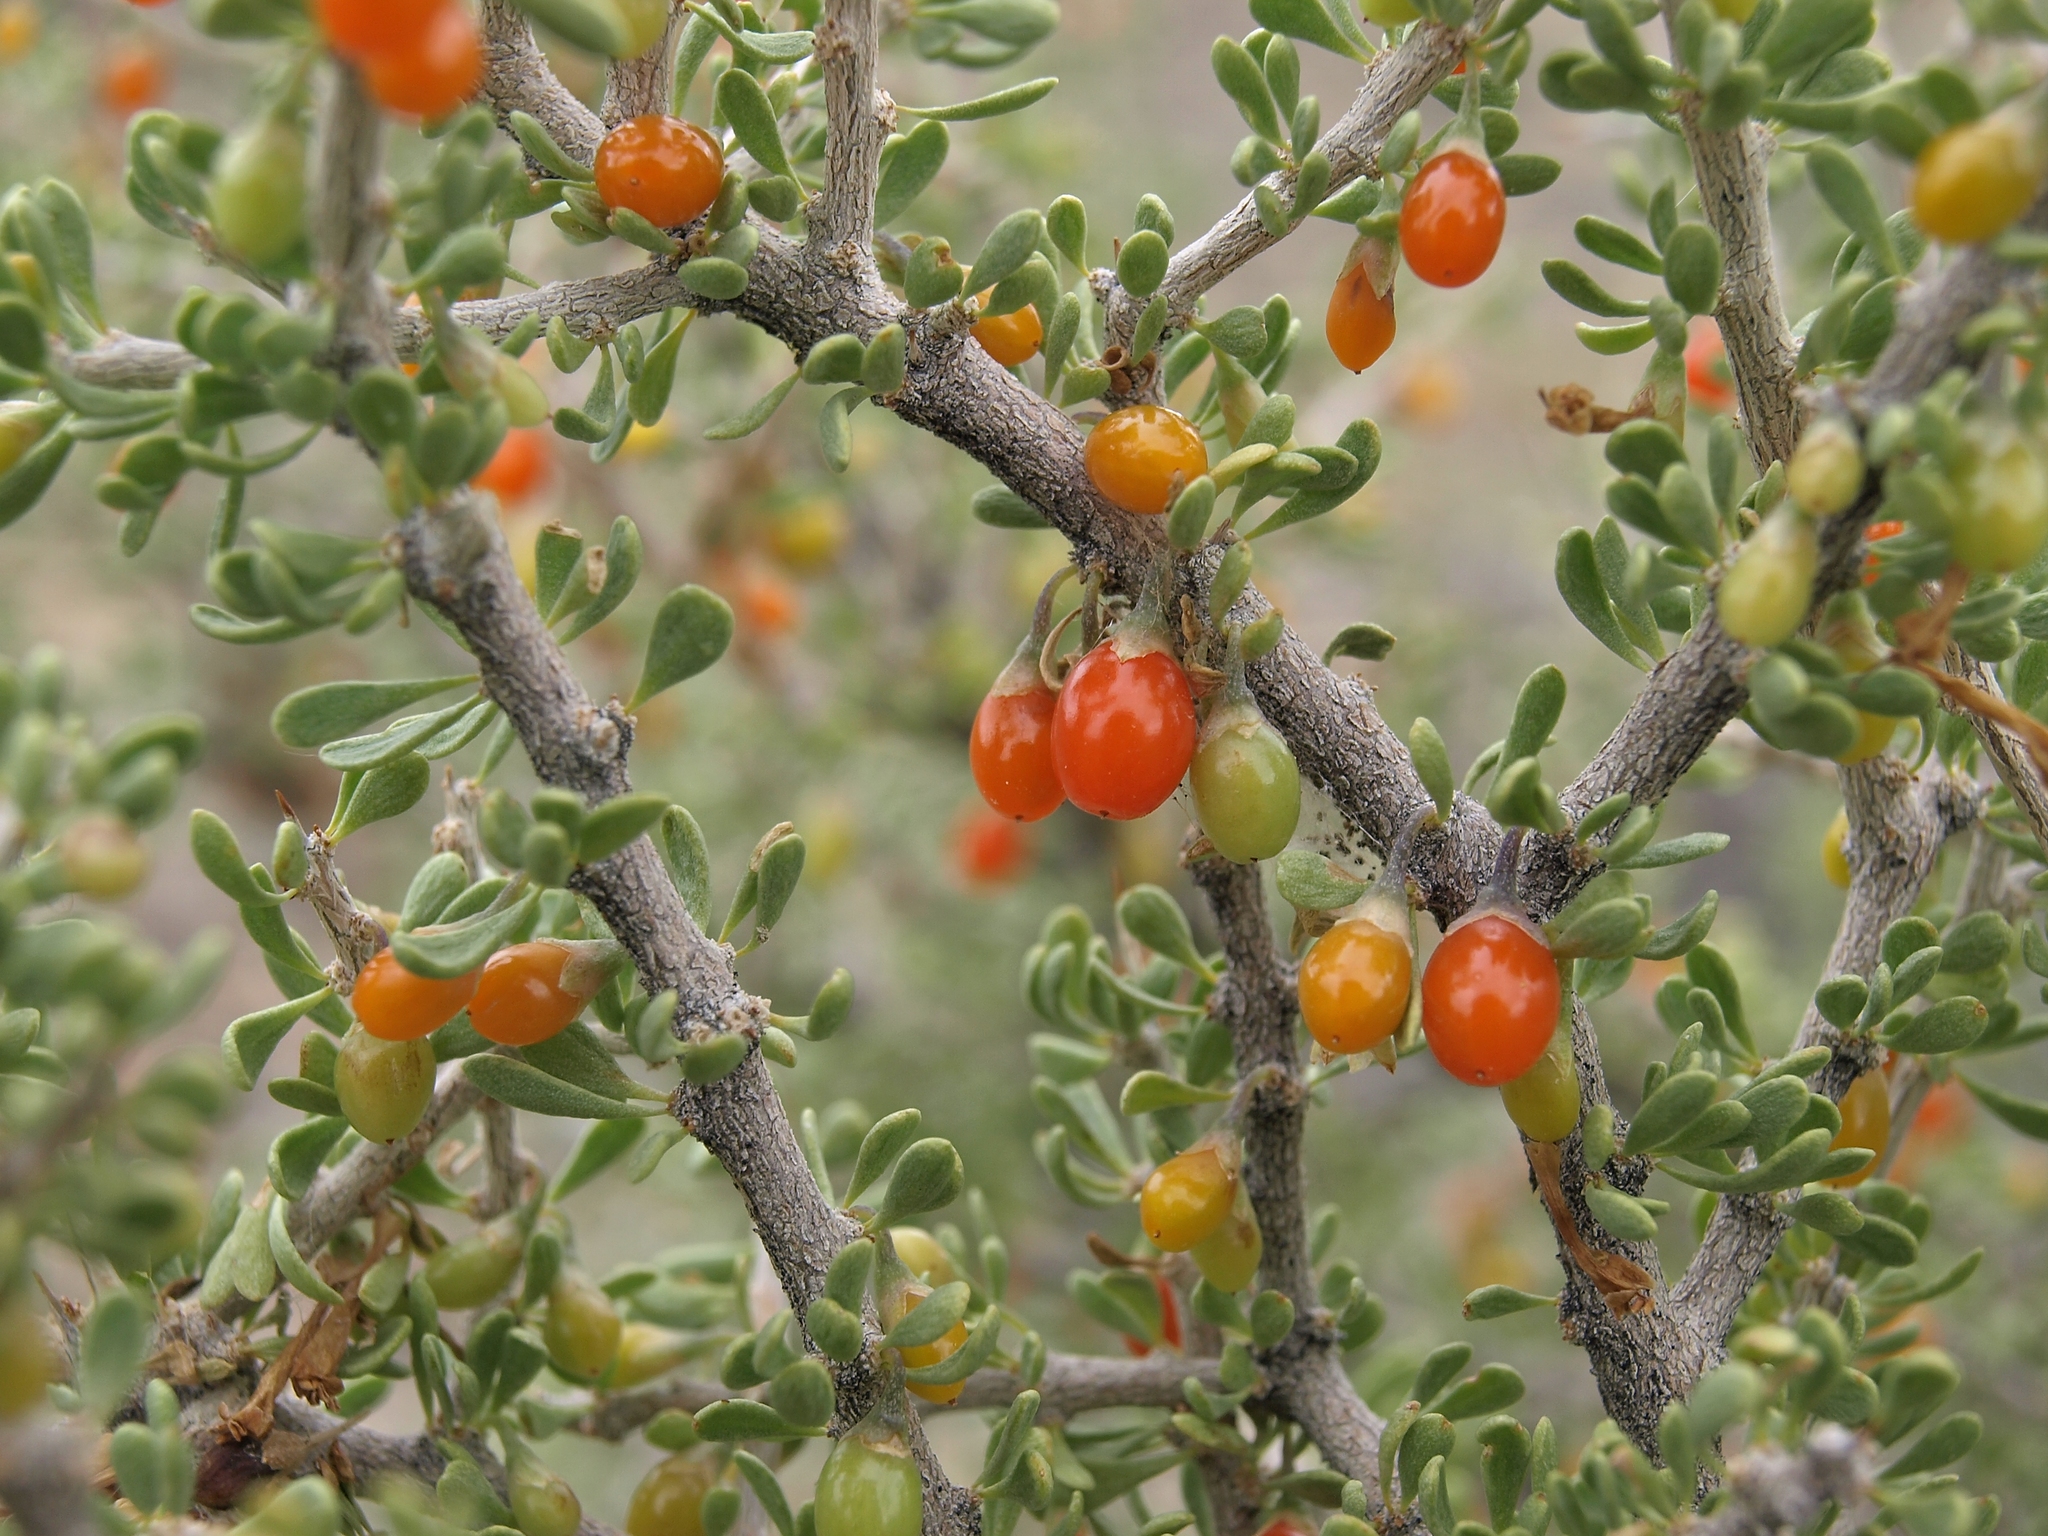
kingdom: Plantae
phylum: Tracheophyta
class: Magnoliopsida
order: Solanales
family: Solanaceae
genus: Lycium
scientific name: Lycium andersonii
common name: Water-jacket
